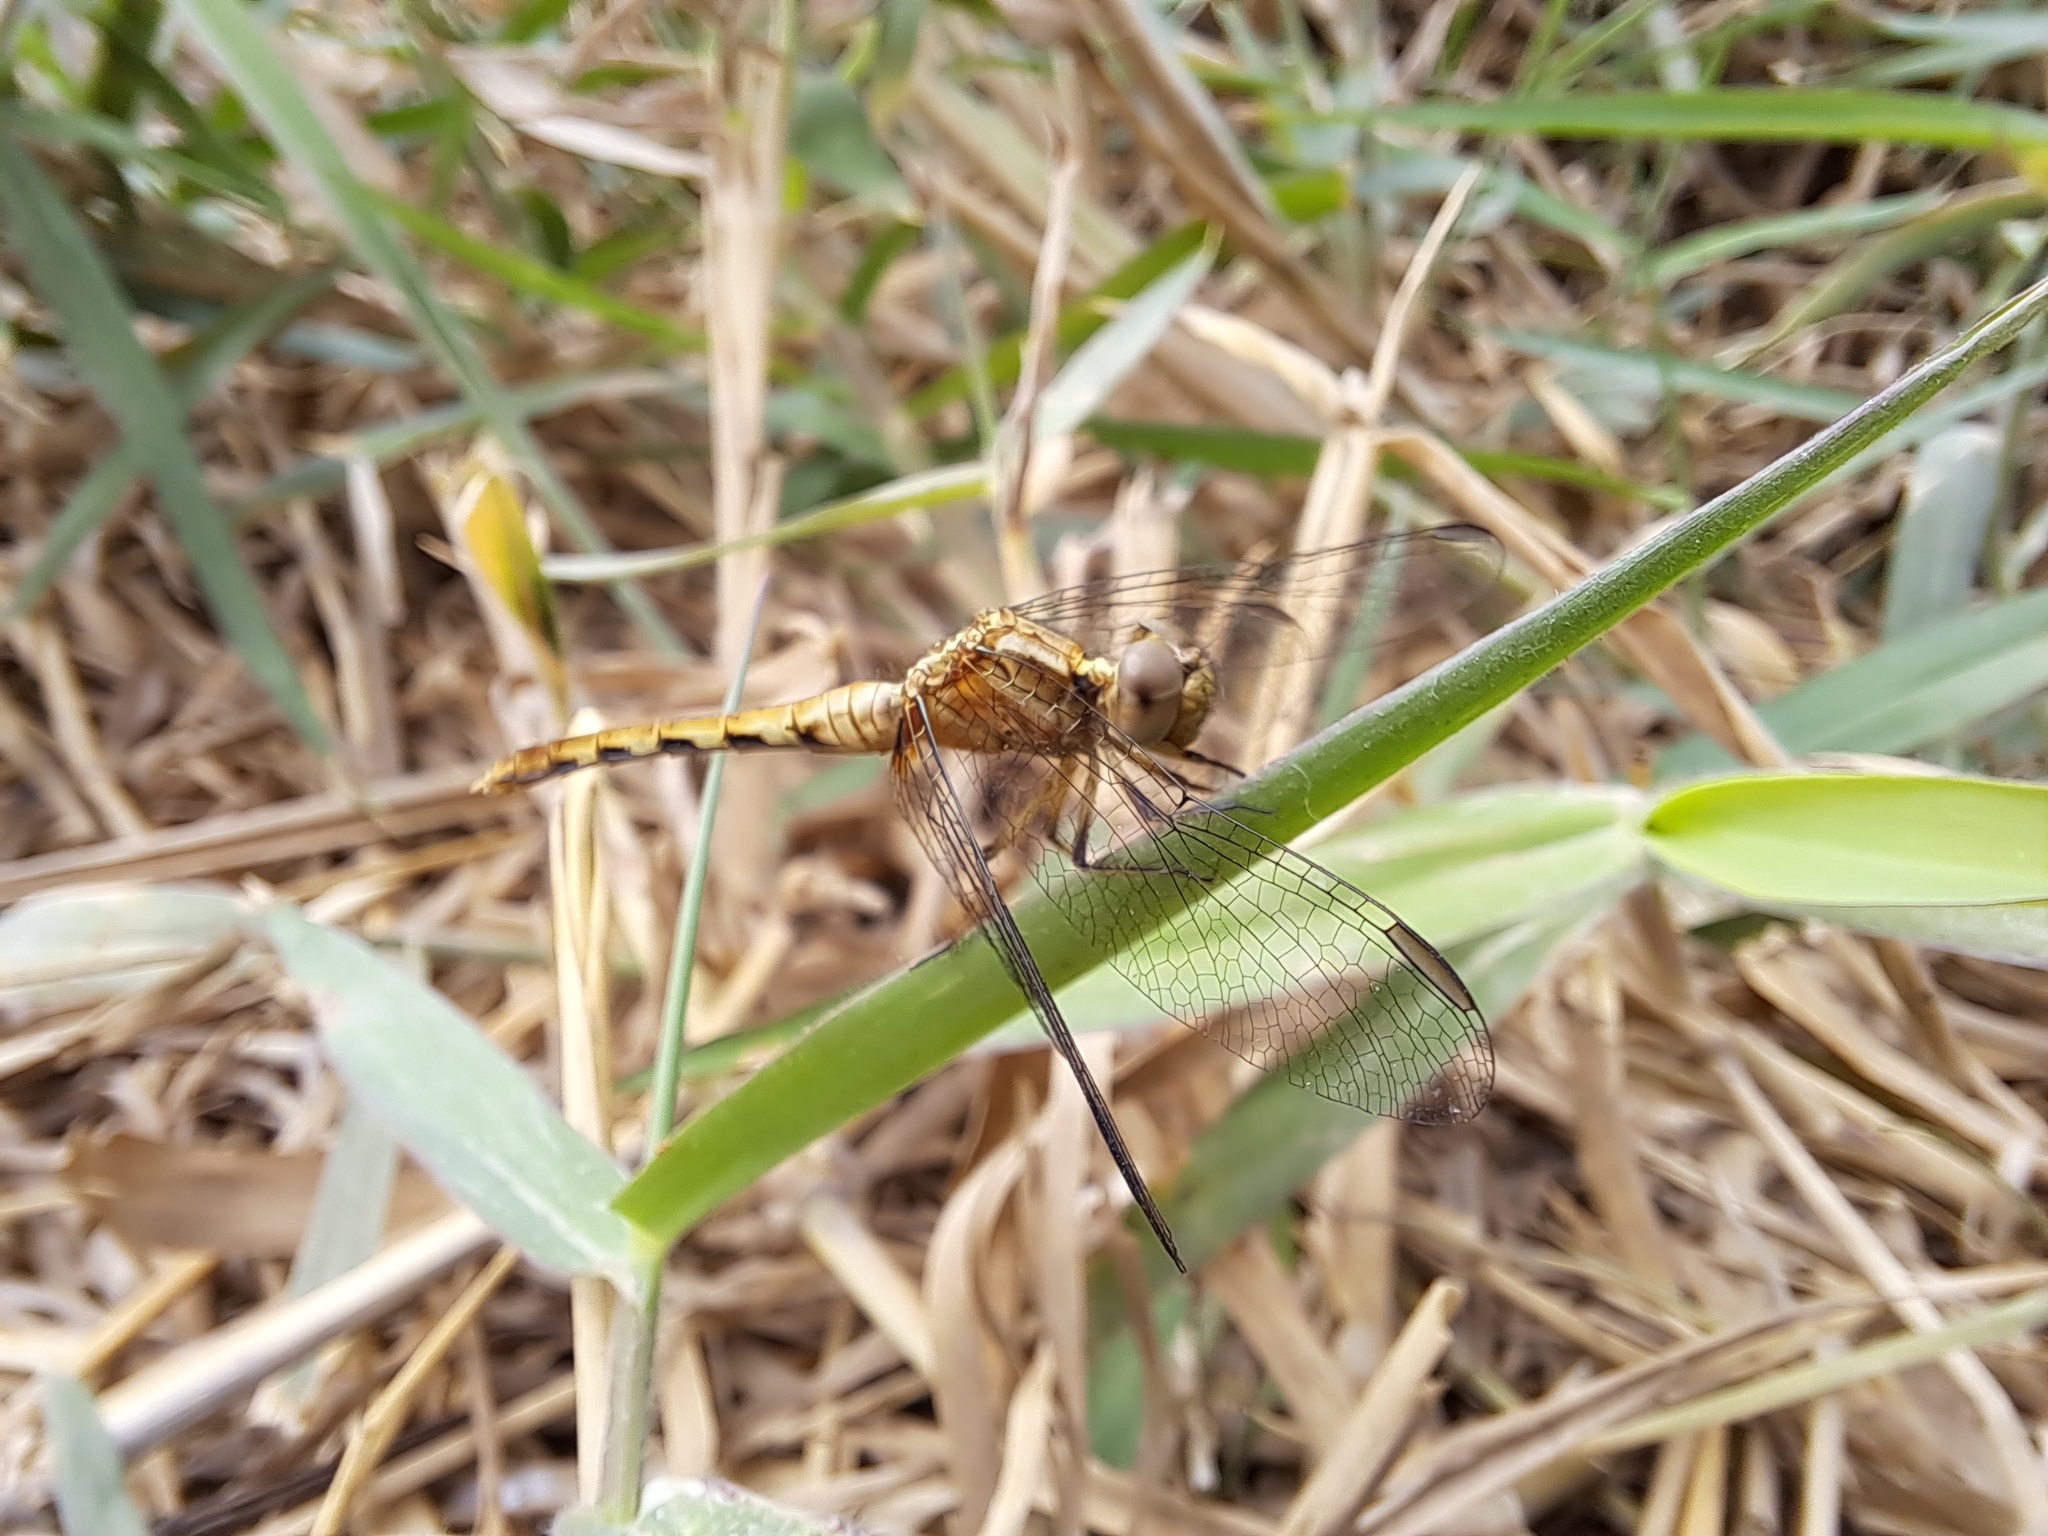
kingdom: Animalia
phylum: Arthropoda
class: Insecta
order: Odonata
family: Libellulidae
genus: Erythrodiplax
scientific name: Erythrodiplax cleopatra
